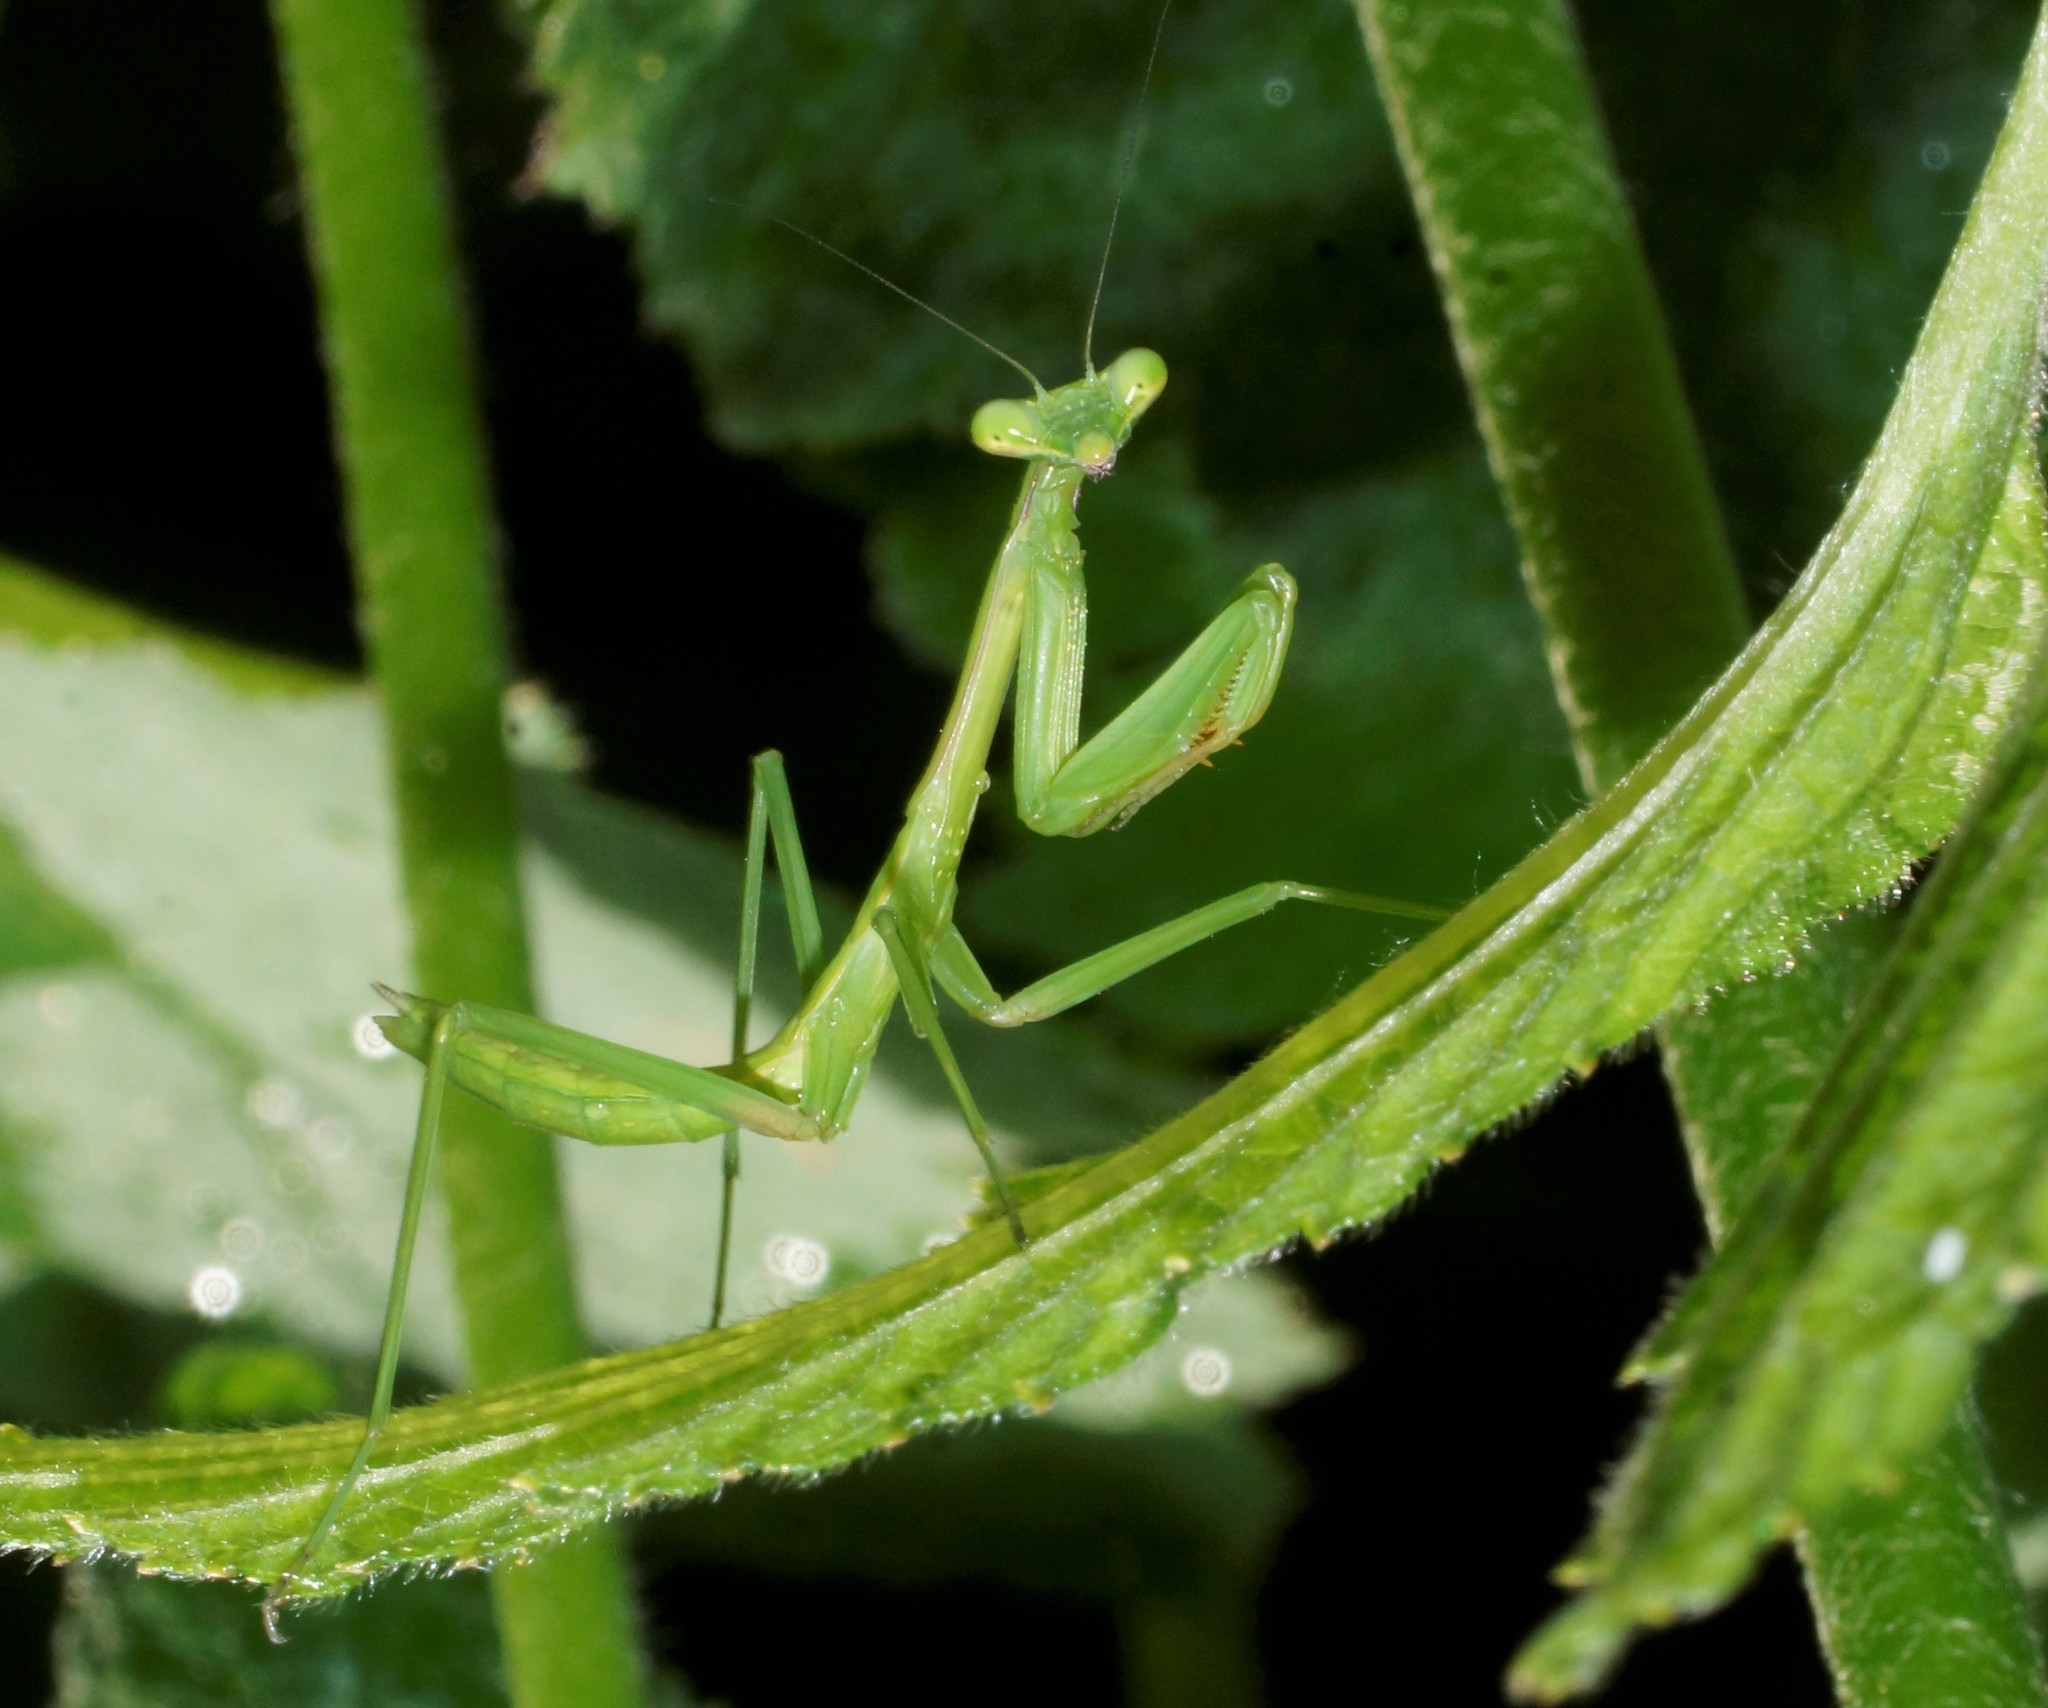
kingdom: Animalia
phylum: Arthropoda
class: Insecta
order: Mantodea
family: Mantidae
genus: Pseudomantis
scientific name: Pseudomantis albofimbriata
